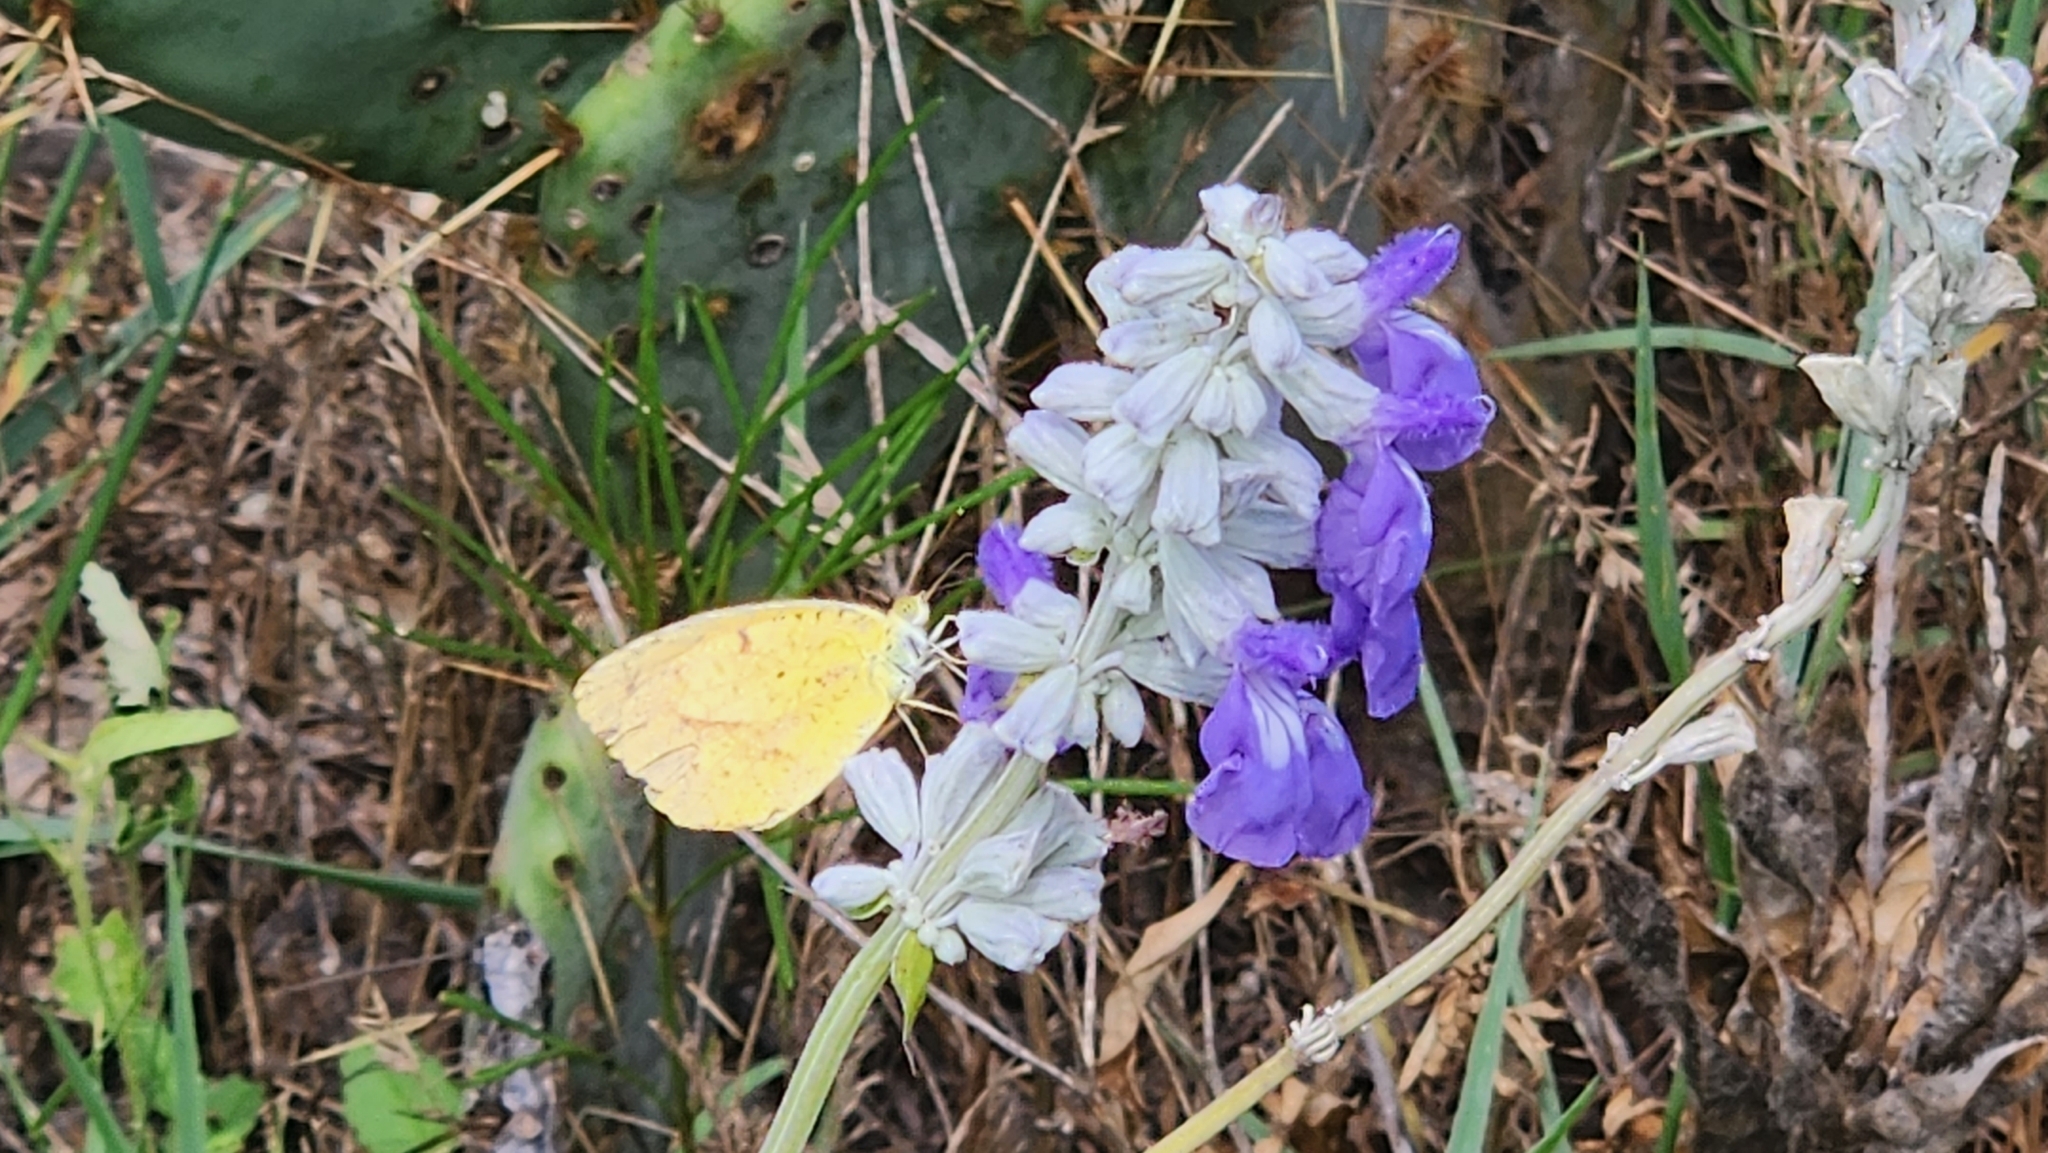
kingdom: Animalia
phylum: Arthropoda
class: Insecta
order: Lepidoptera
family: Pieridae
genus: Abaeis
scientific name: Abaeis nicippe
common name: Sleepy orange
